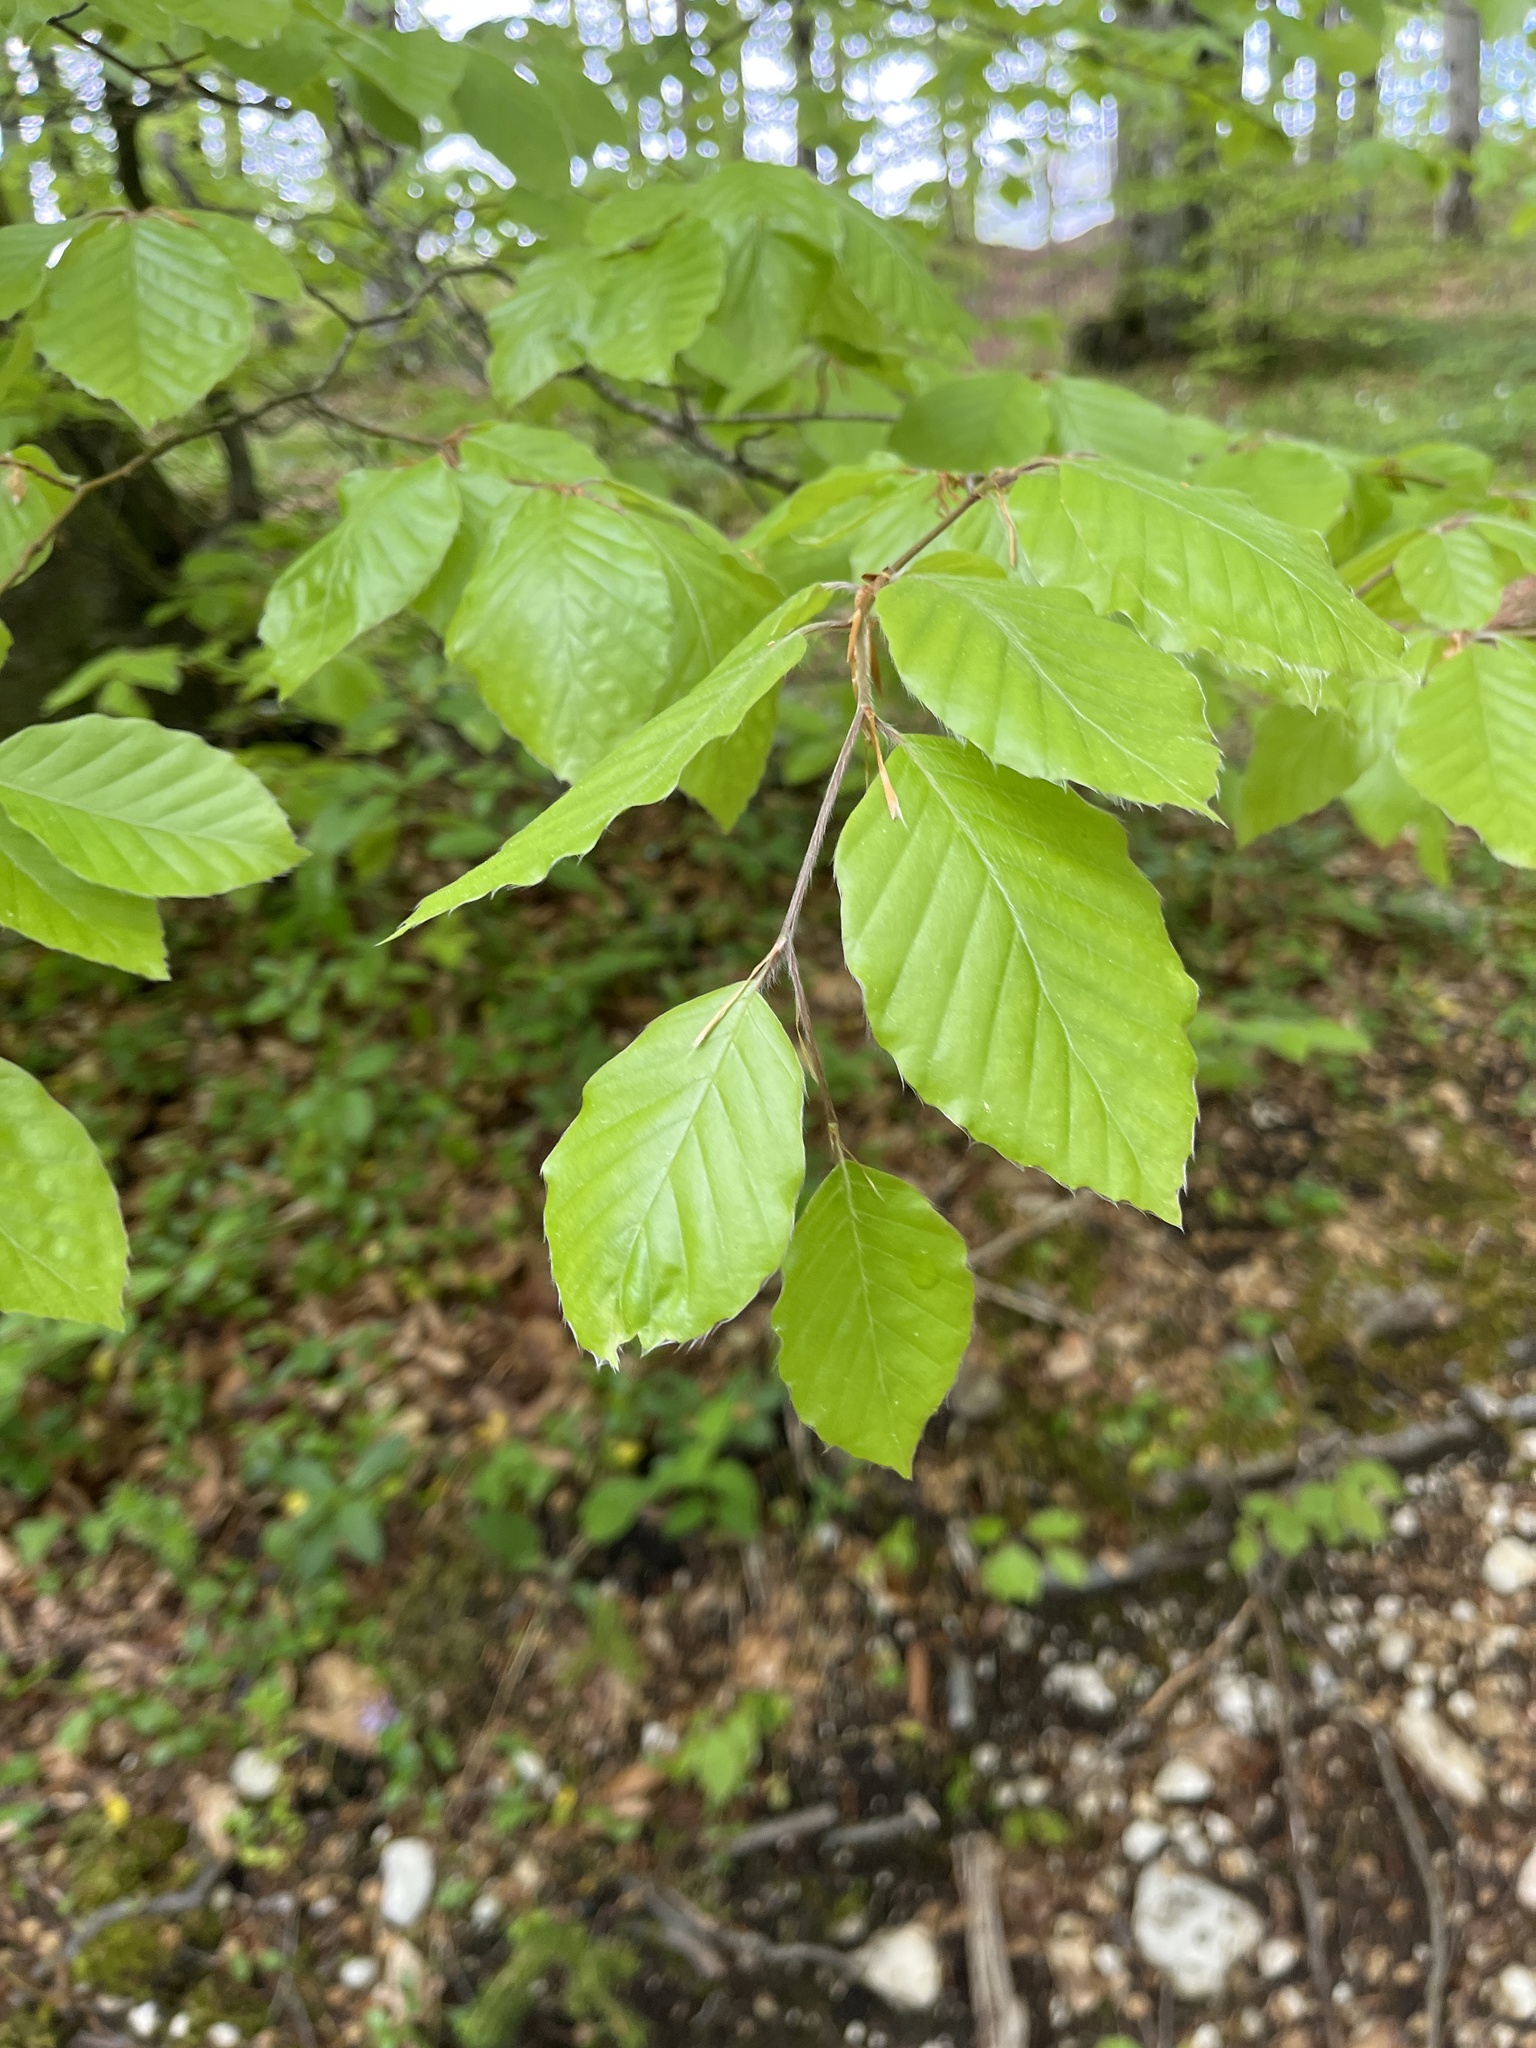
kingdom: Plantae
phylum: Tracheophyta
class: Magnoliopsida
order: Fagales
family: Fagaceae
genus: Fagus
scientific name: Fagus sylvatica
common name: Beech
